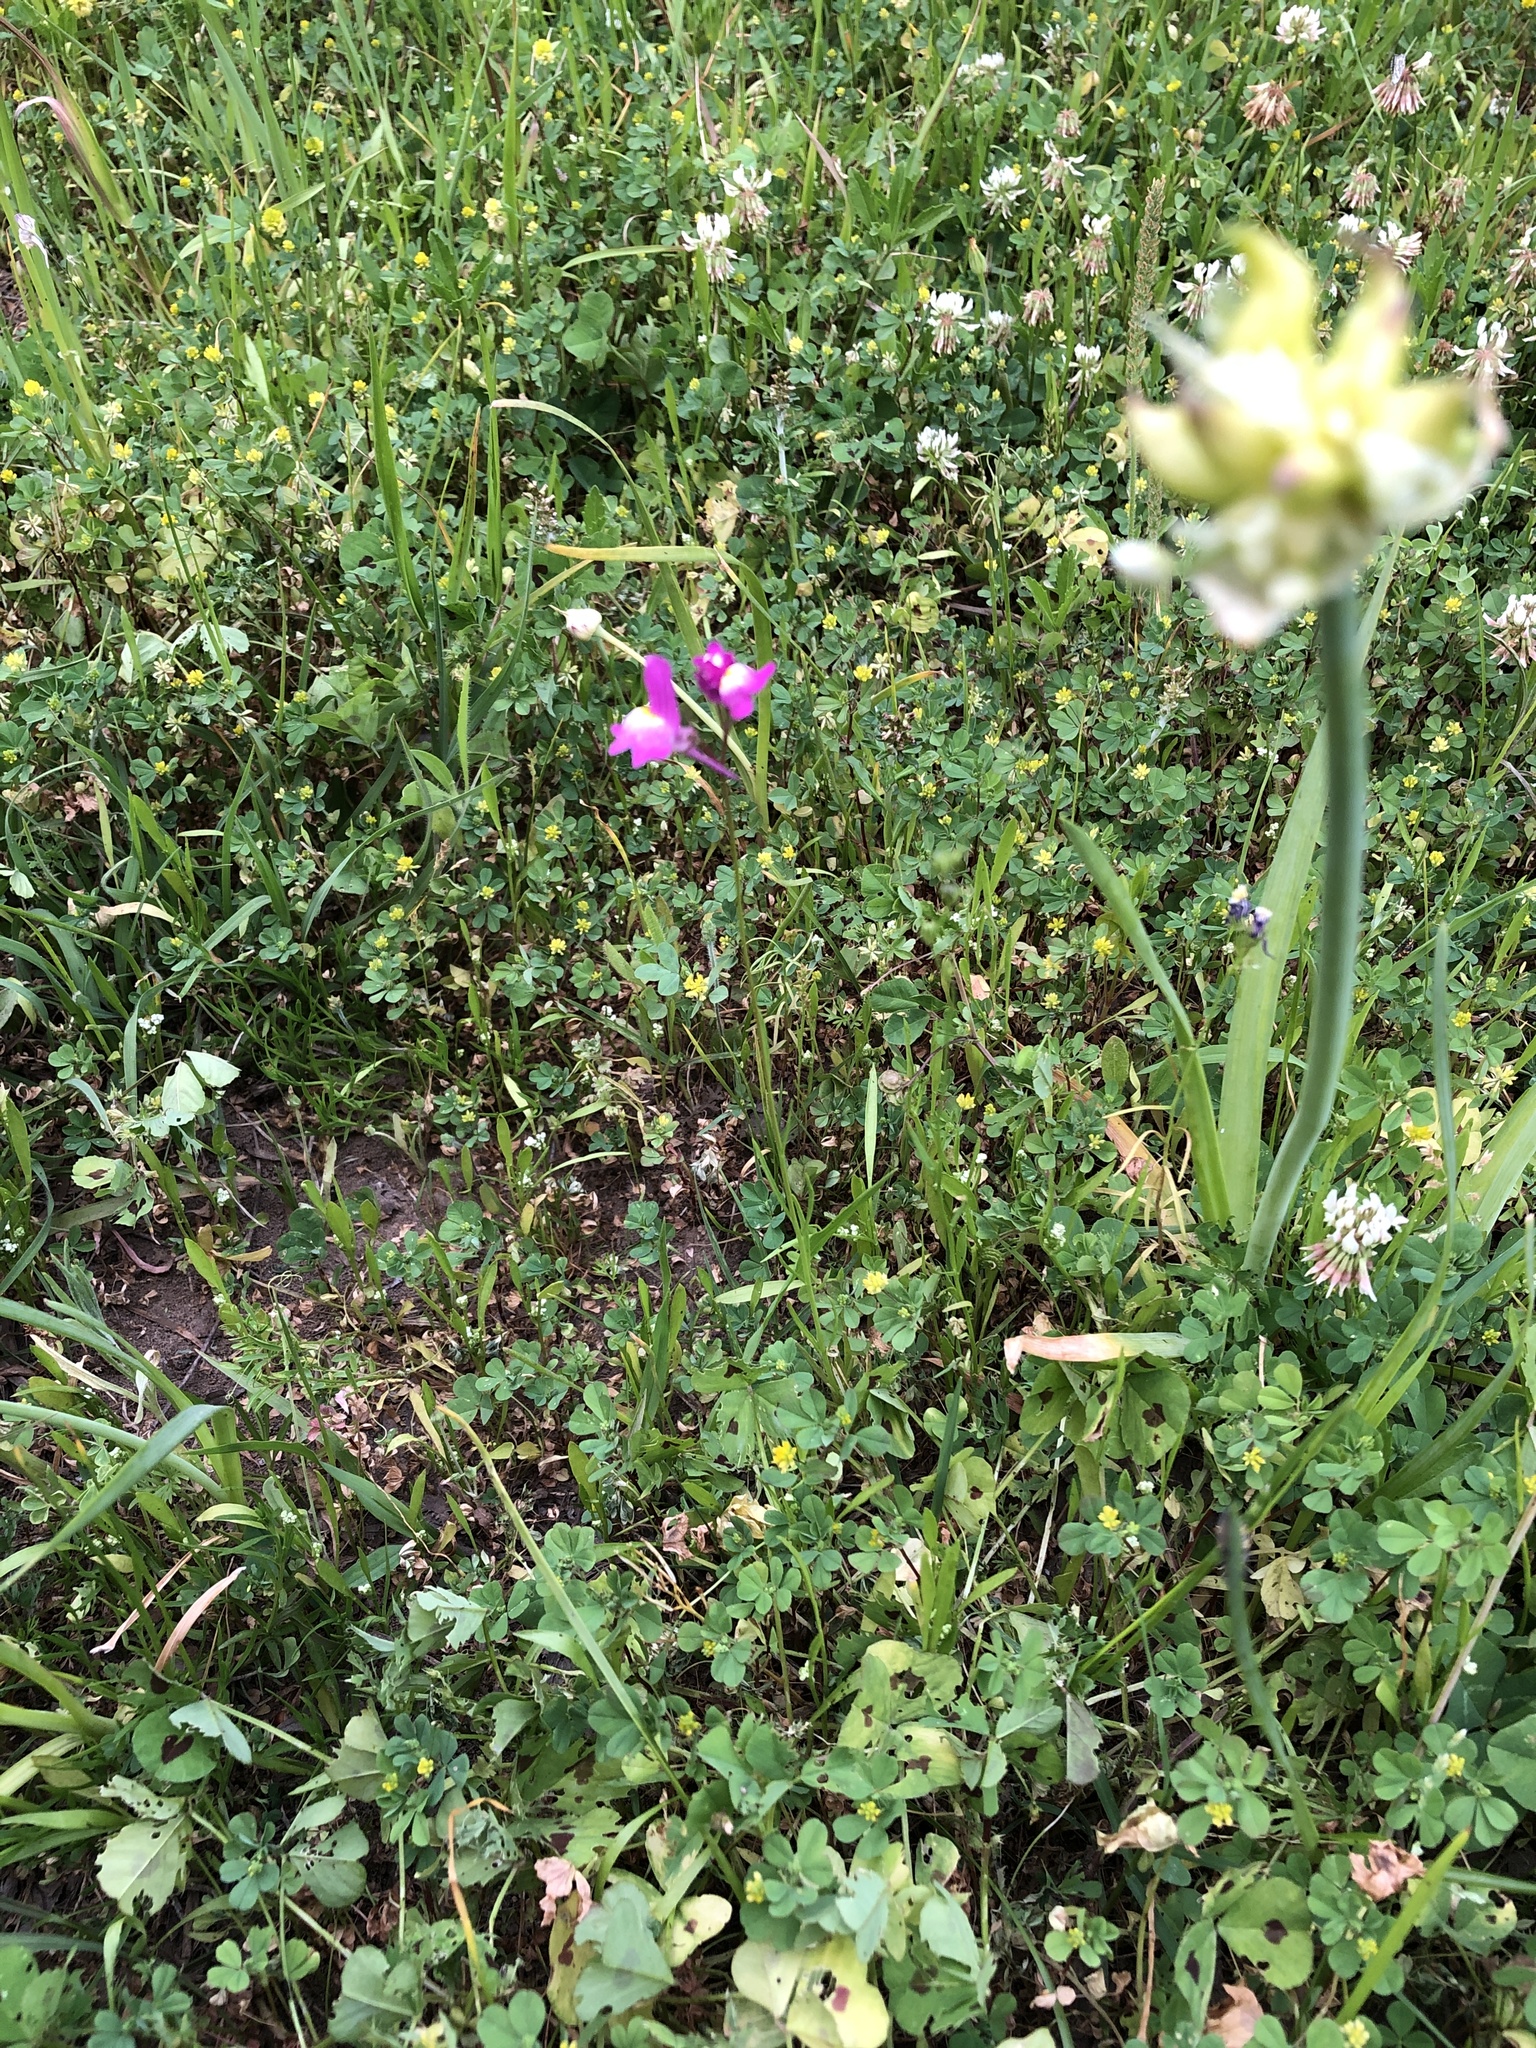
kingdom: Plantae
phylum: Tracheophyta
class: Magnoliopsida
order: Lamiales
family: Plantaginaceae
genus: Linaria
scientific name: Linaria maroccana
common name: Moroccan toadflax
